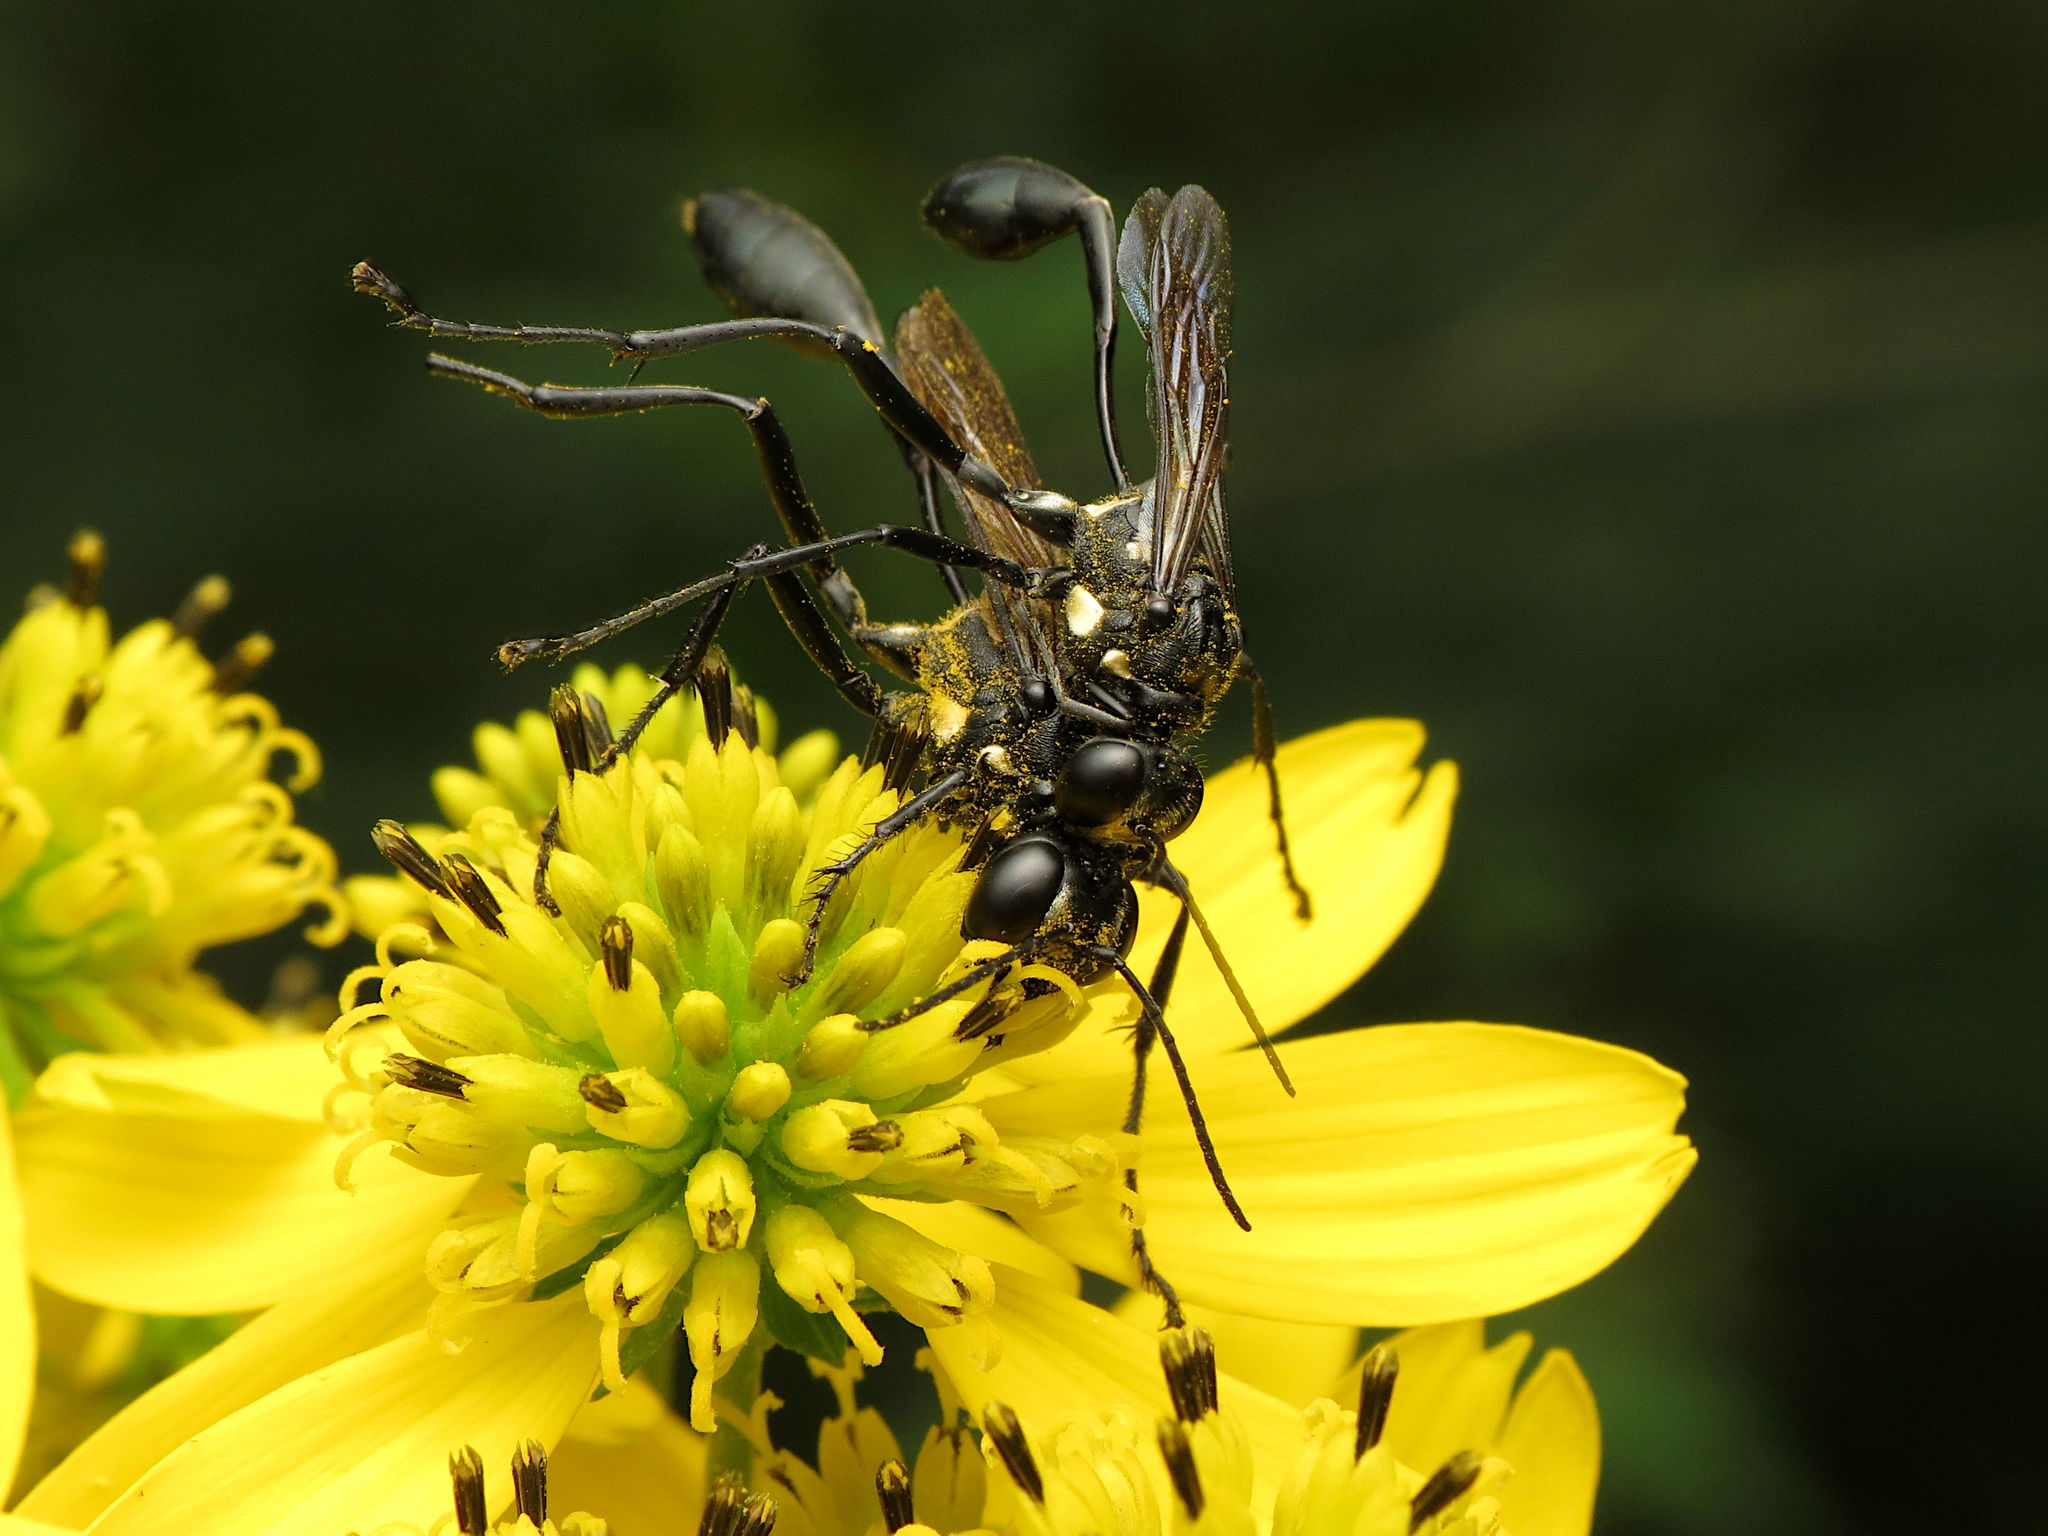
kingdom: Animalia
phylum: Arthropoda
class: Insecta
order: Hymenoptera
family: Sphecidae
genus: Eremnophila
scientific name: Eremnophila aureonotata
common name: Gold-marked thread-waisted wasp
